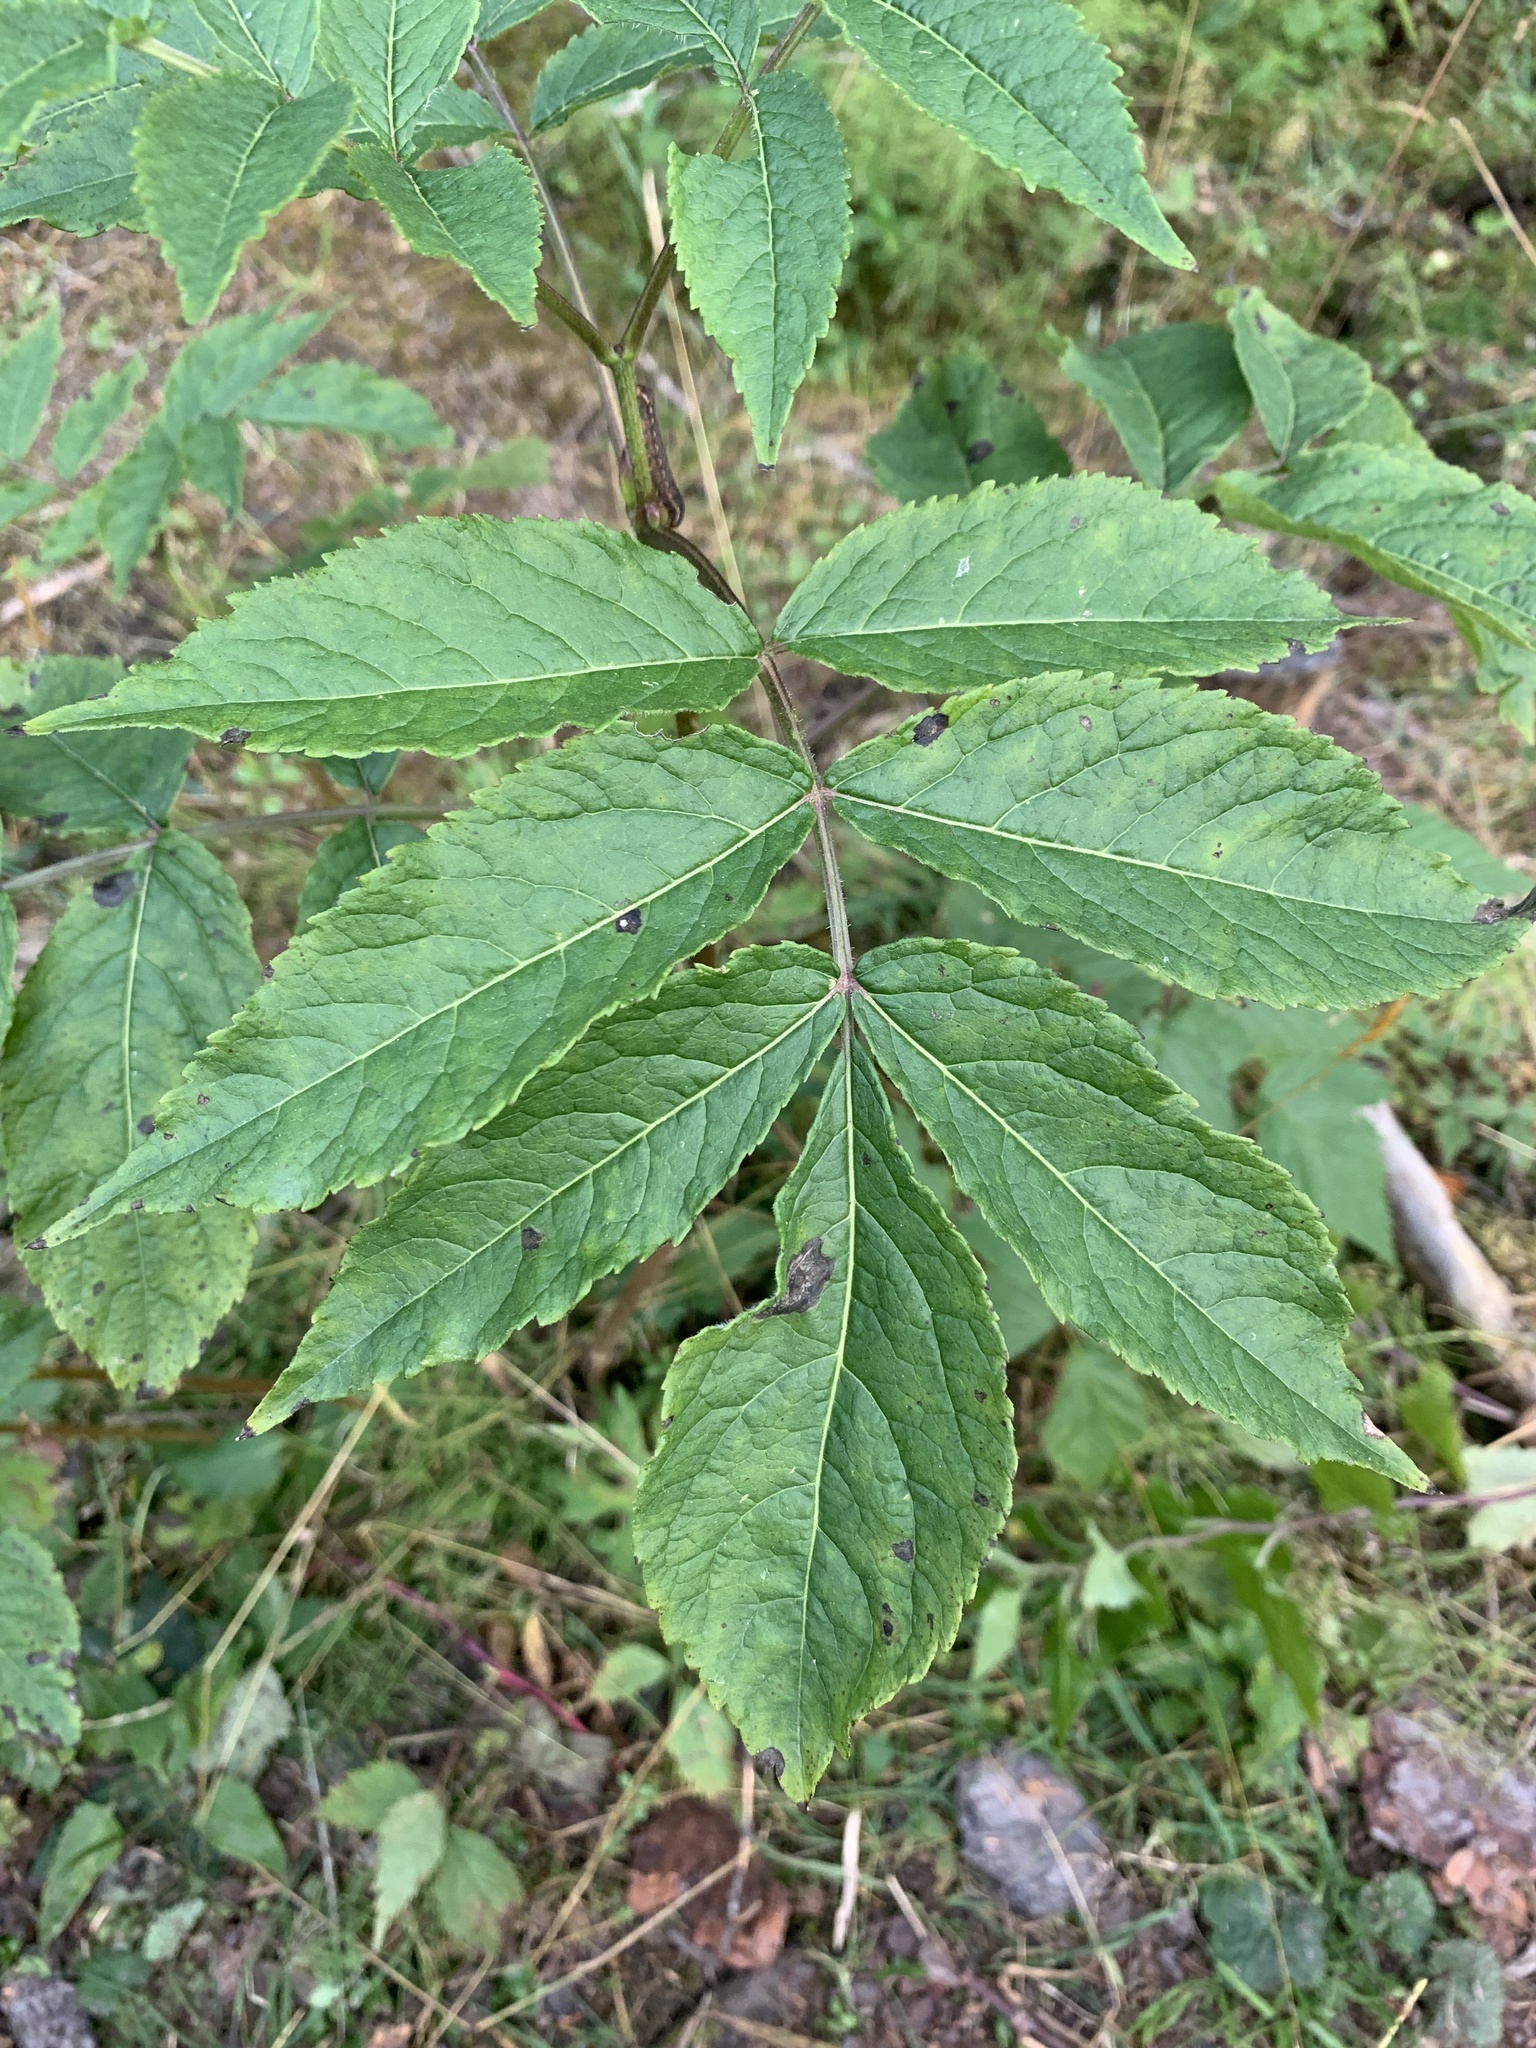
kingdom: Plantae
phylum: Tracheophyta
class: Magnoliopsida
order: Dipsacales
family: Viburnaceae
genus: Sambucus
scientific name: Sambucus racemosa
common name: Red-berried elder
